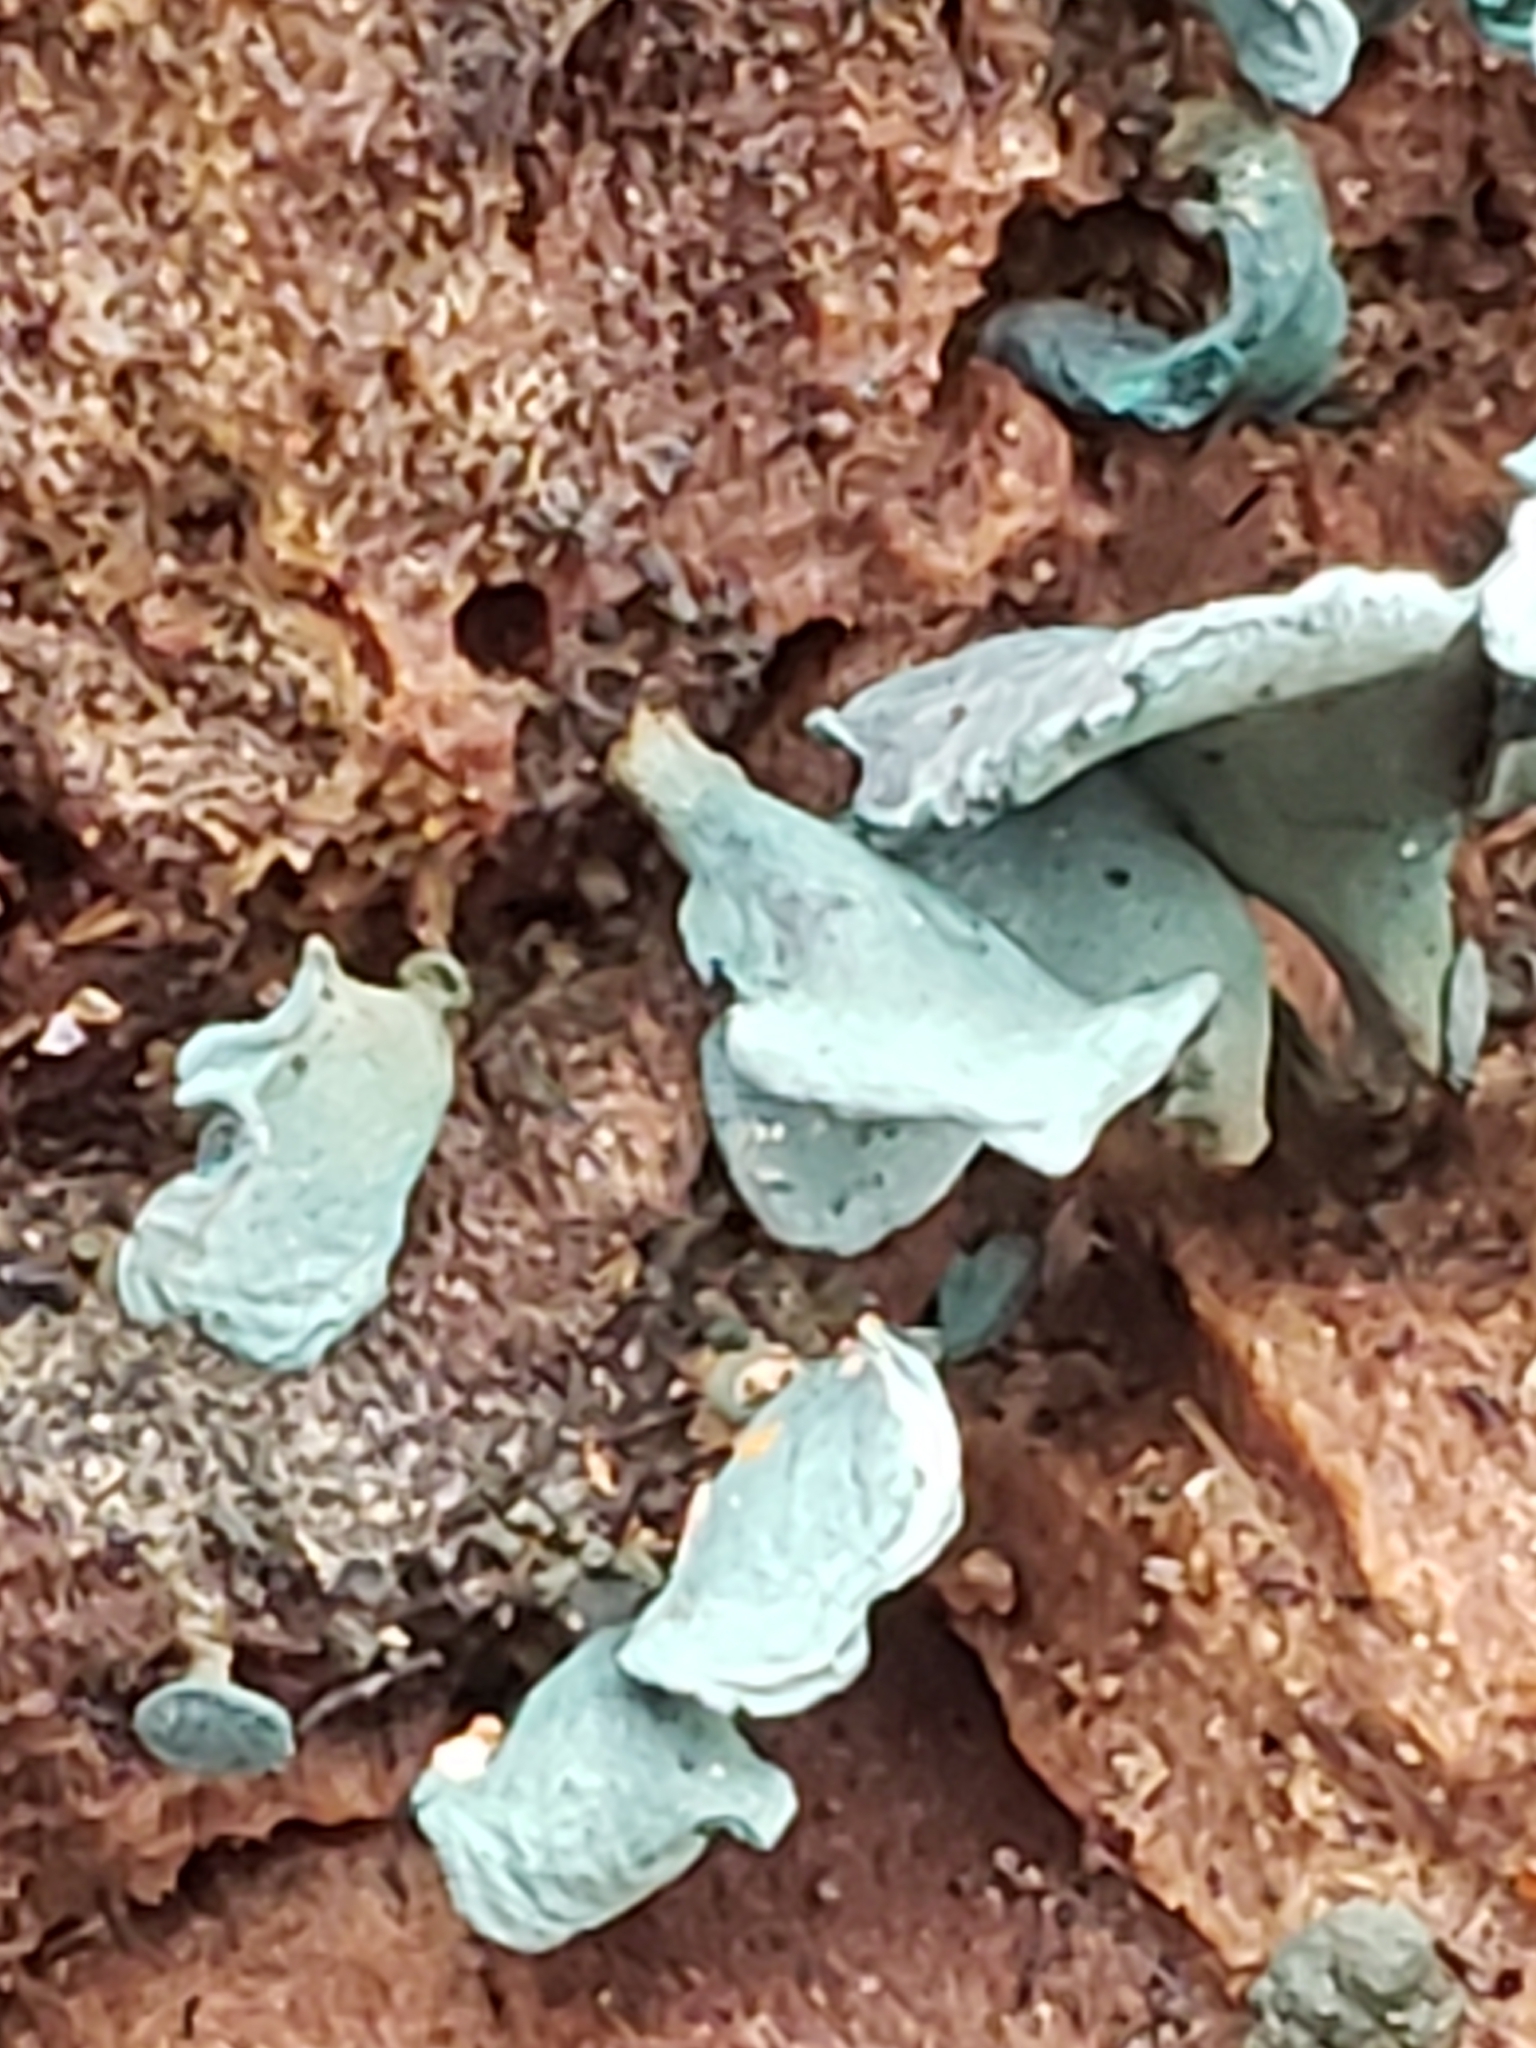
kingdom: Fungi
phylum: Ascomycota
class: Leotiomycetes
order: Helotiales
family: Chlorociboriaceae
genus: Chlorociboria
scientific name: Chlorociboria aeruginascens
